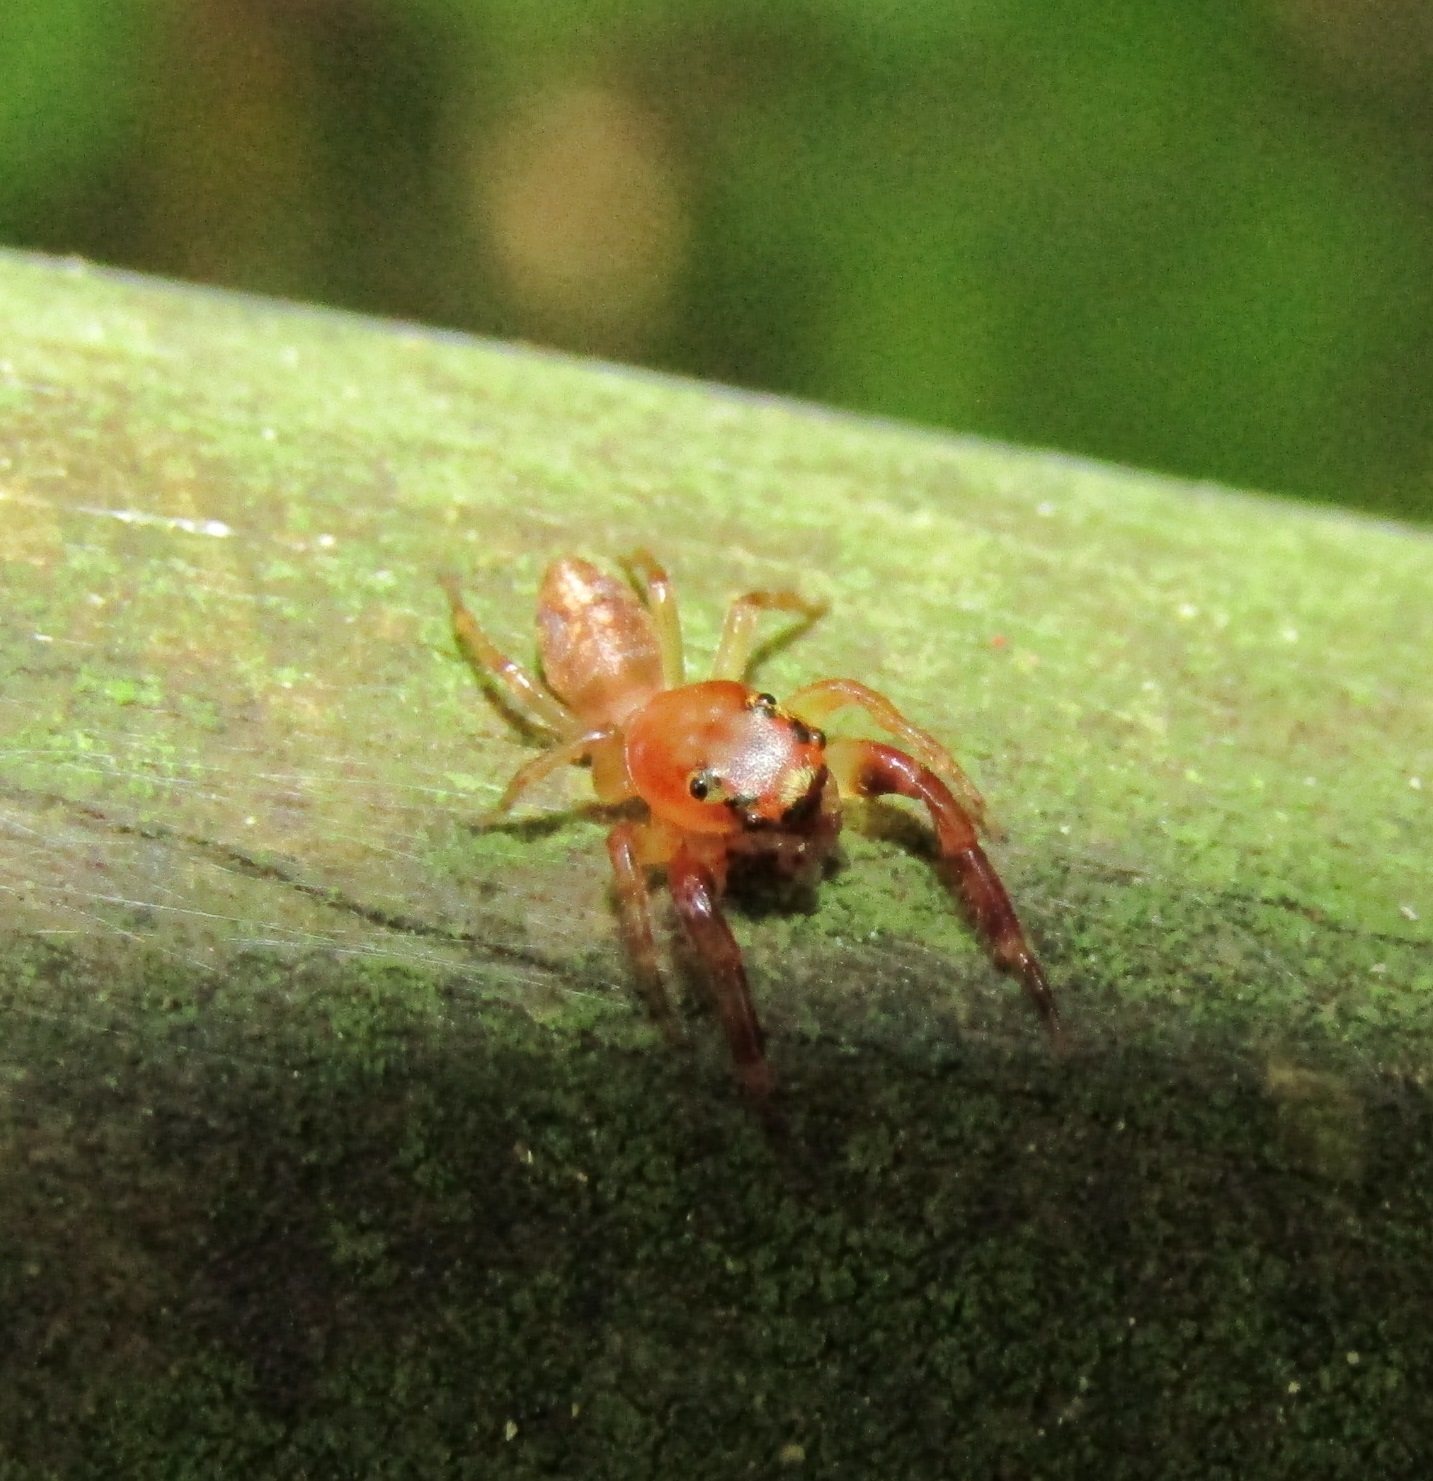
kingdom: Animalia
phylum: Arthropoda
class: Arachnida
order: Araneae
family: Salticidae
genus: Trite
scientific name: Trite mustilina
